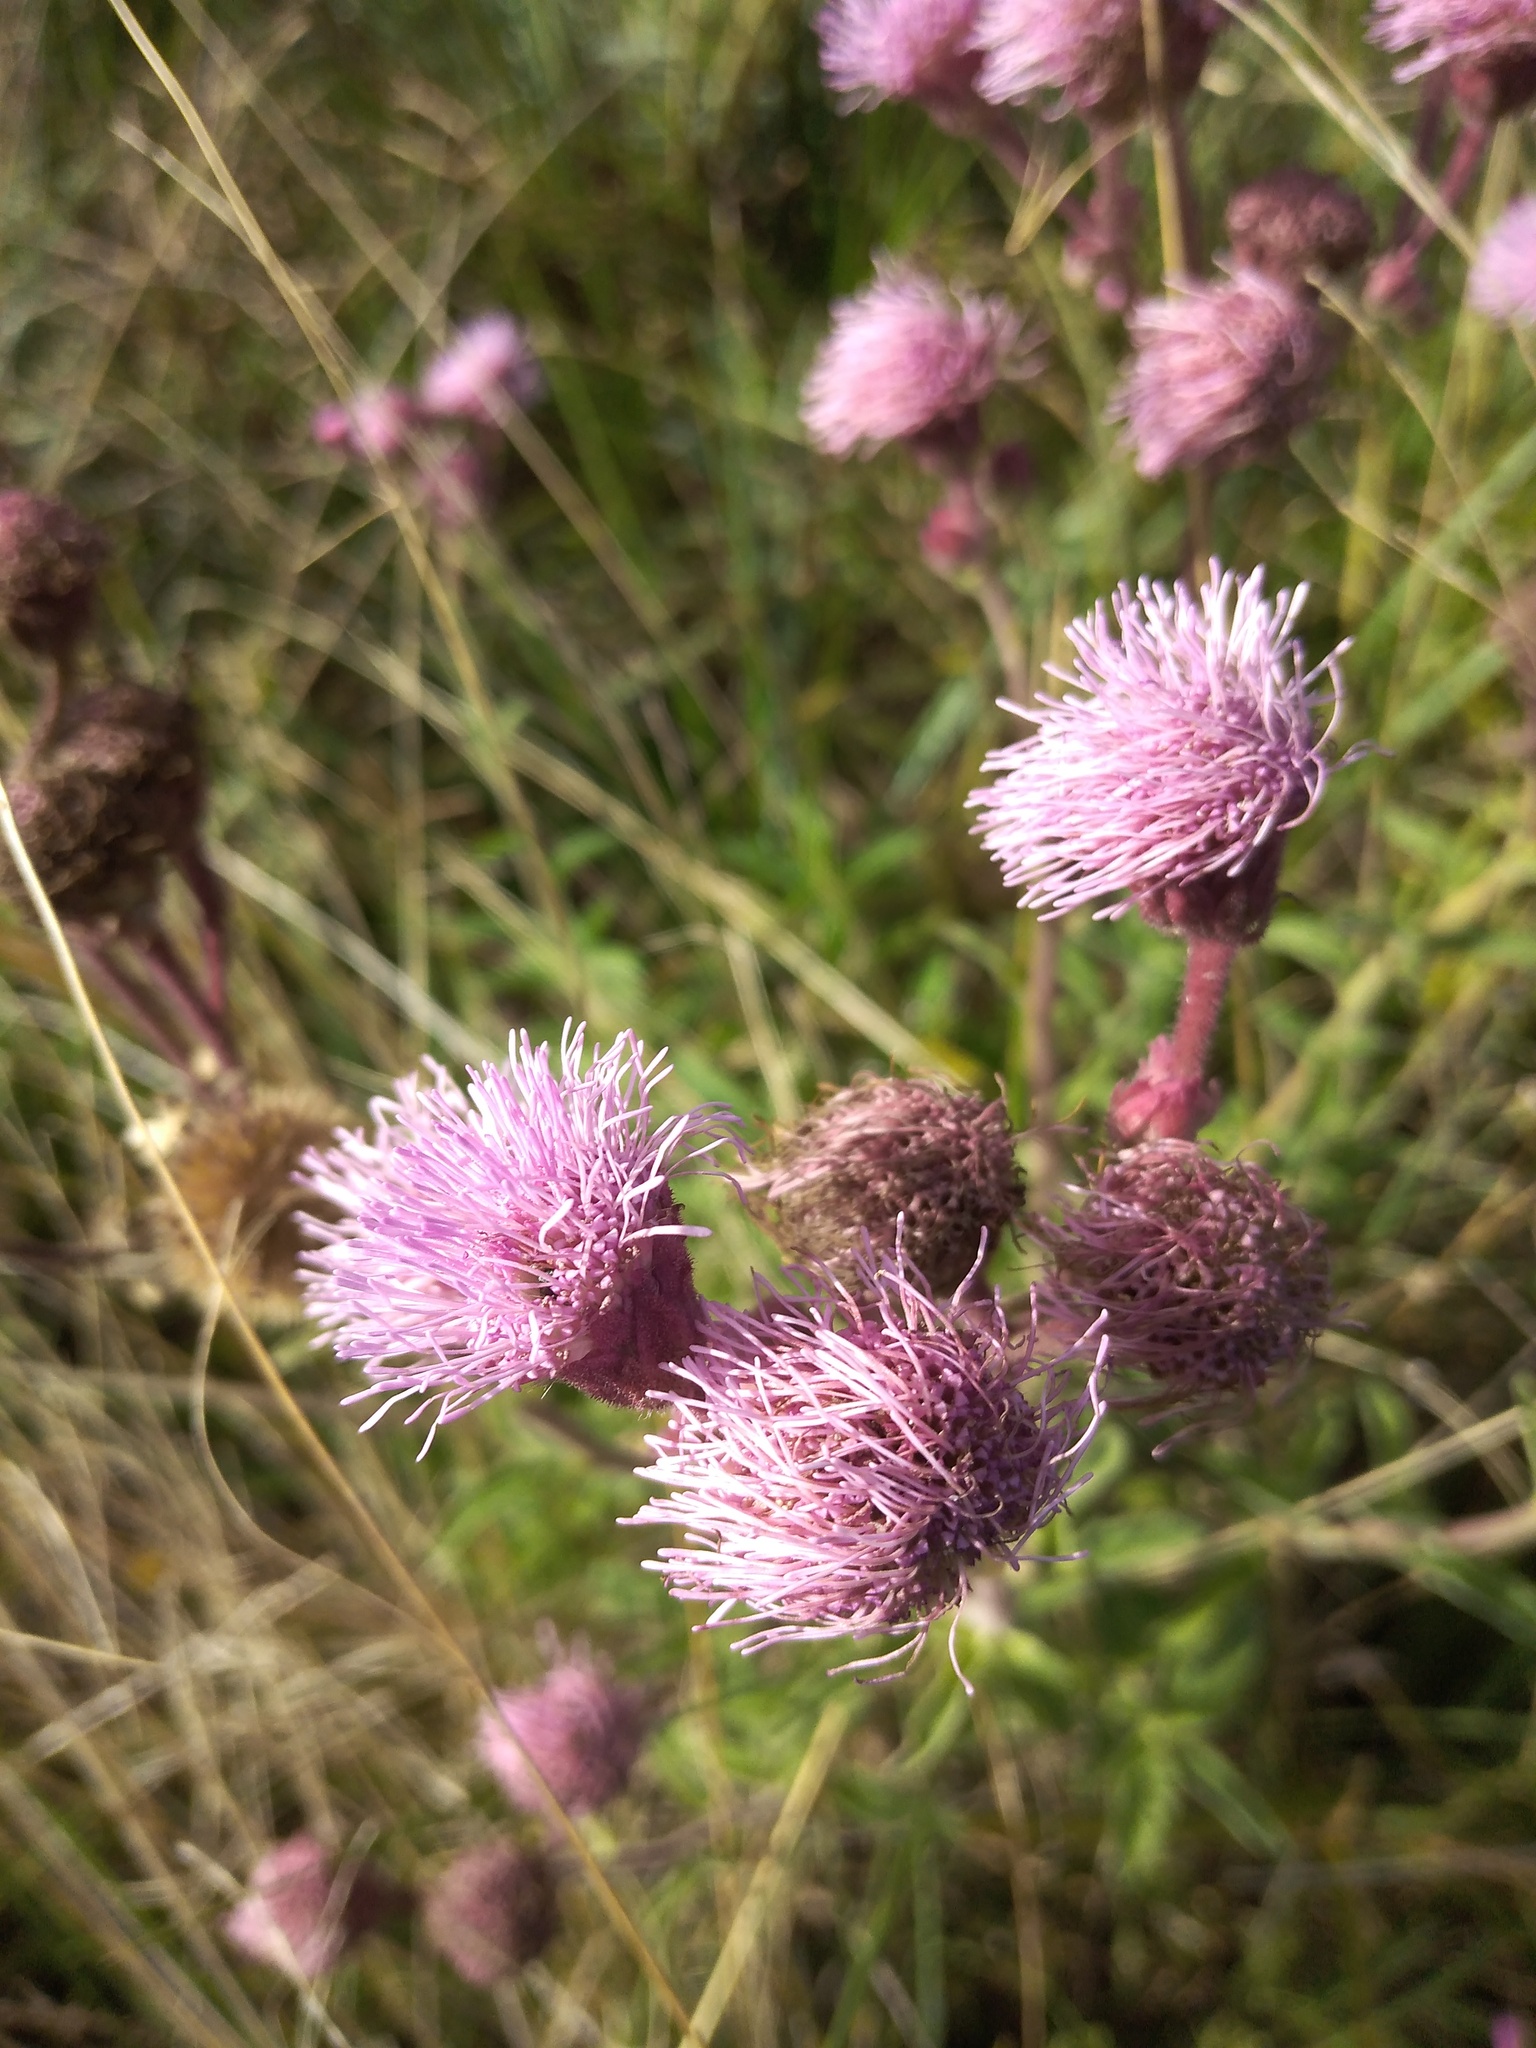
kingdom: Plantae
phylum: Tracheophyta
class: Magnoliopsida
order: Asterales
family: Asteraceae
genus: Campuloclinium
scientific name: Campuloclinium macrocephalum
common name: Pompomweed
